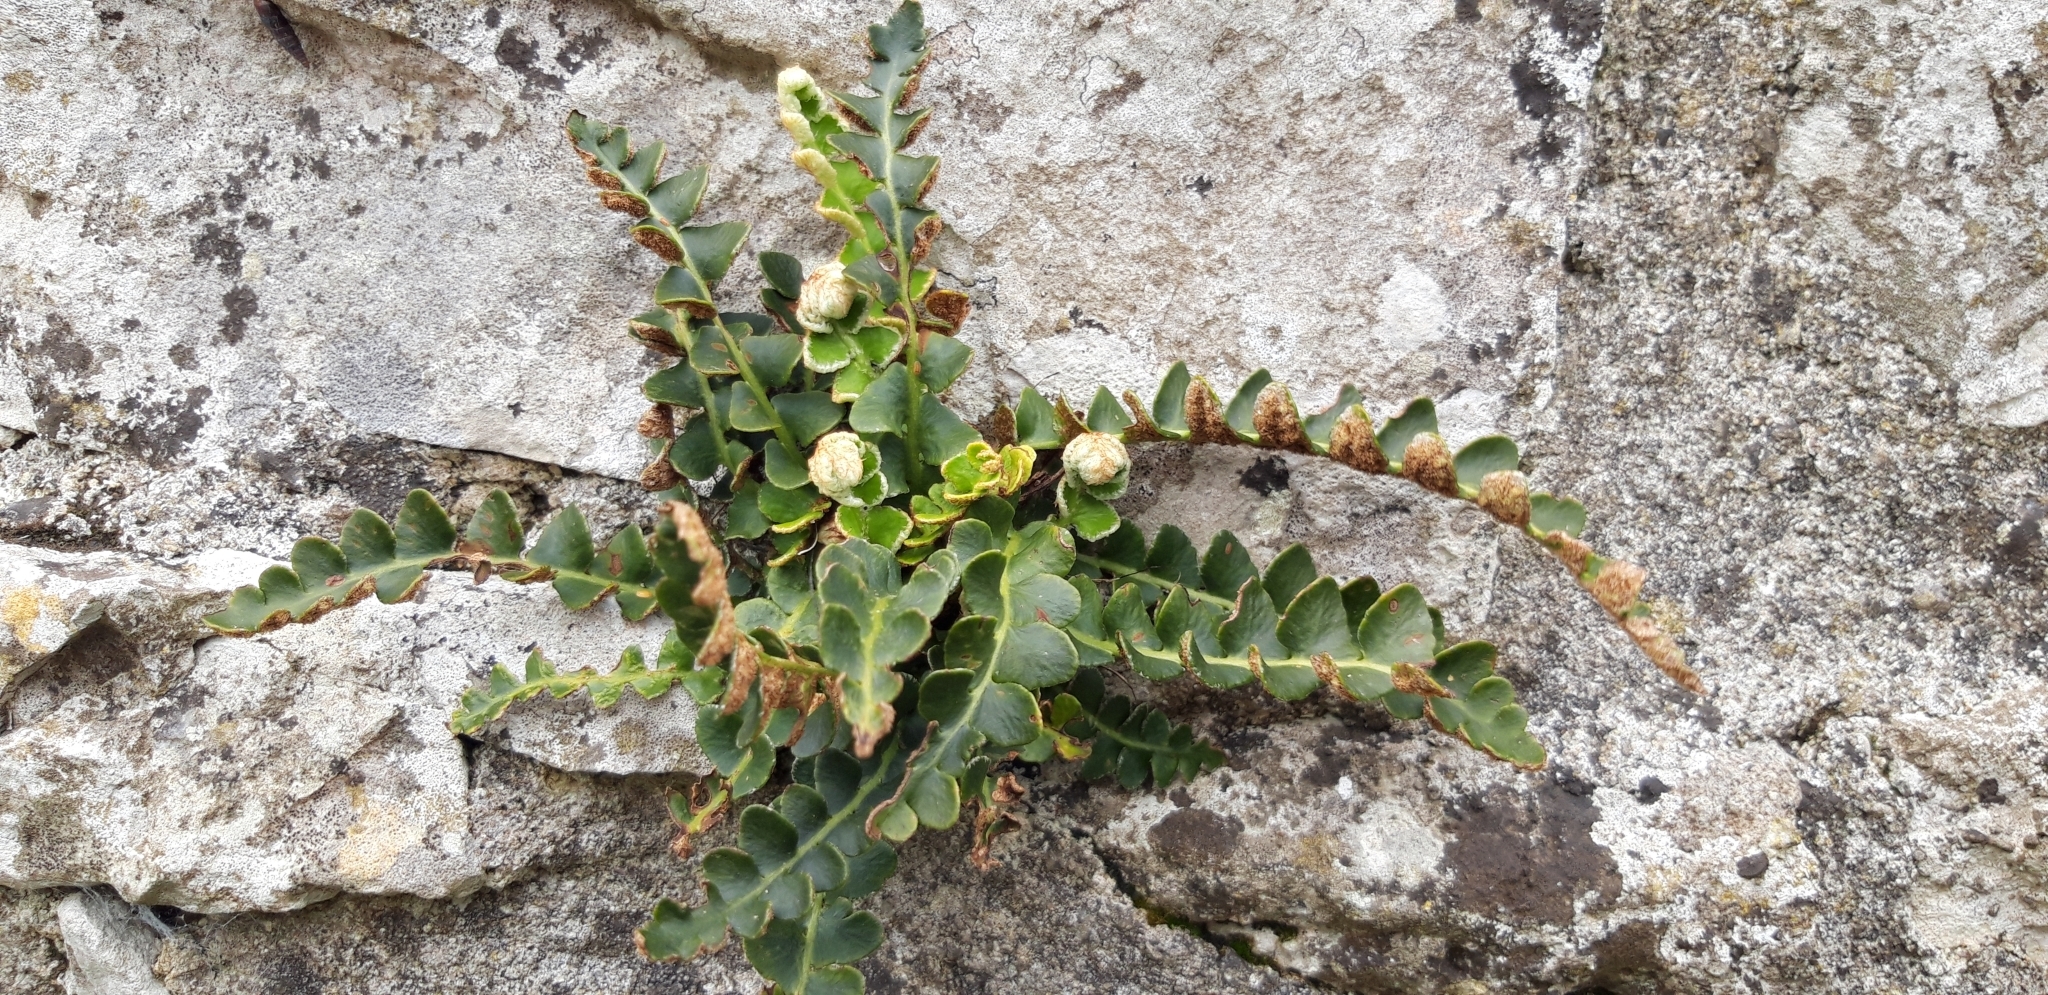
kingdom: Plantae
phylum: Tracheophyta
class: Polypodiopsida
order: Polypodiales
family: Aspleniaceae
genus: Asplenium
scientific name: Asplenium ceterach
